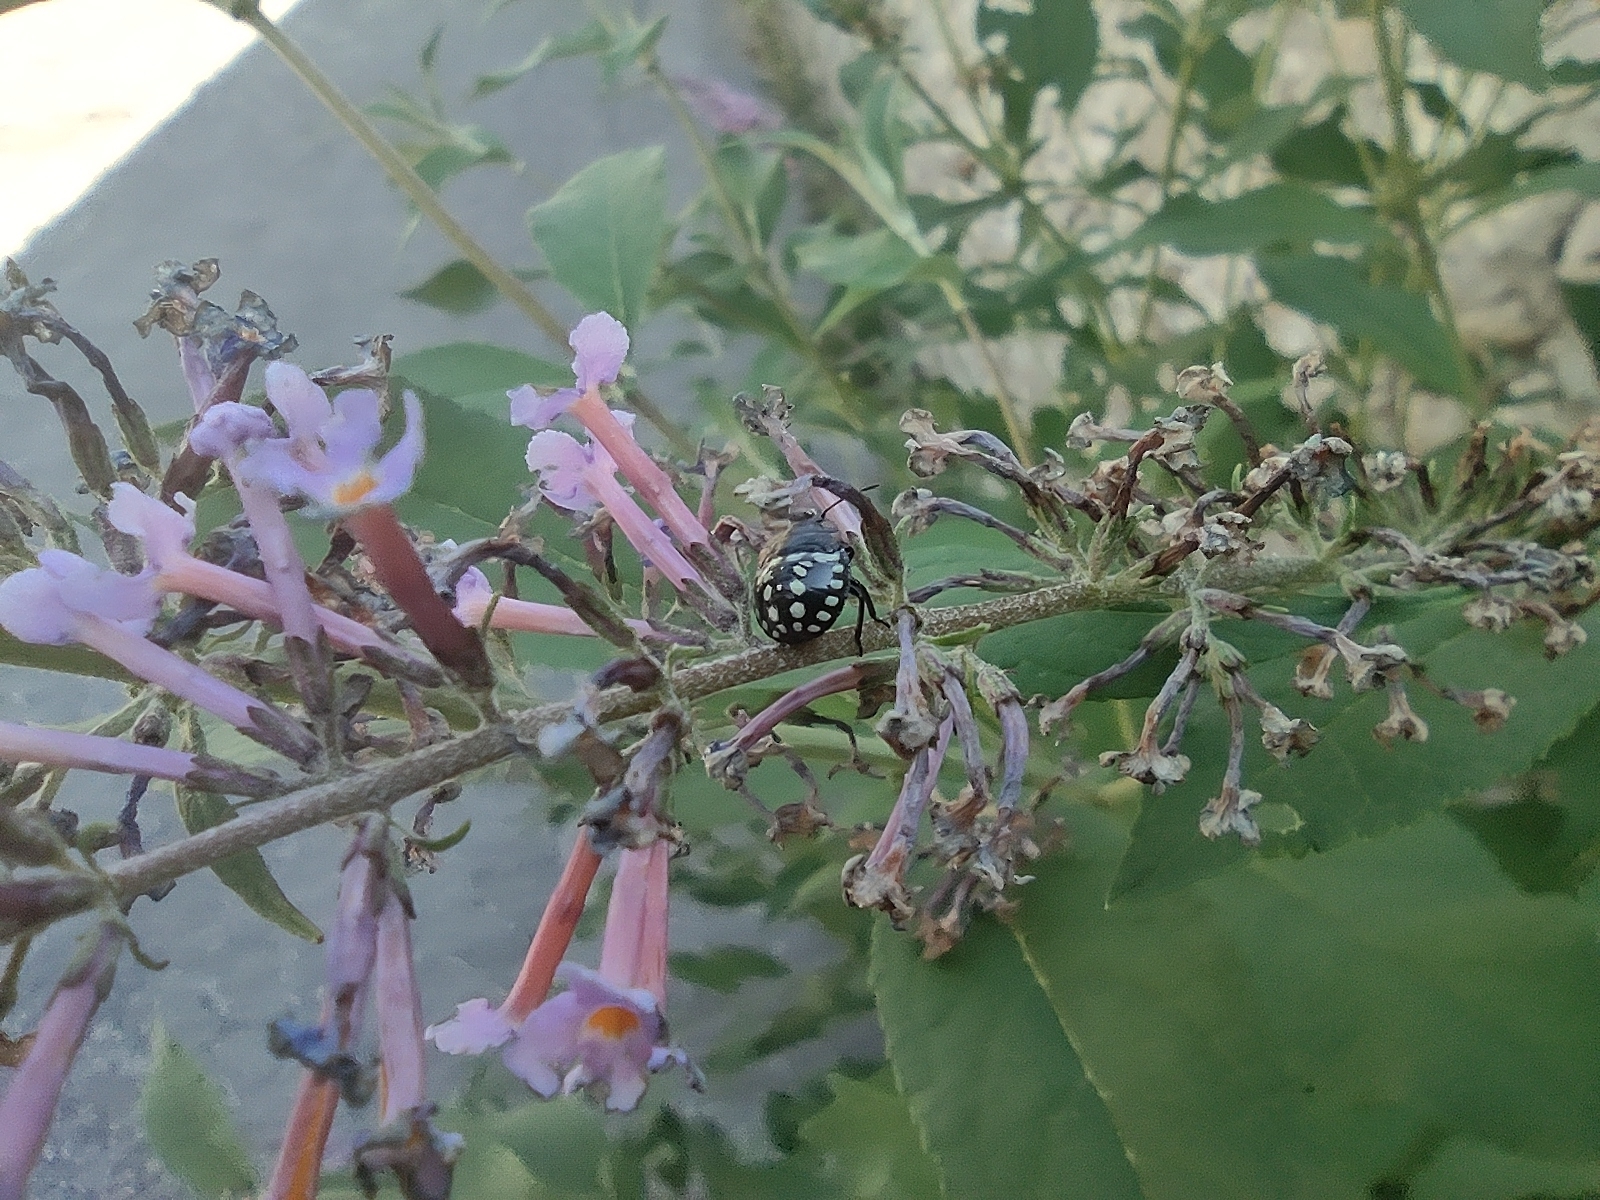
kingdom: Animalia
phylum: Arthropoda
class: Insecta
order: Hemiptera
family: Pentatomidae
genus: Nezara
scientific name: Nezara viridula
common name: Southern green stink bug
